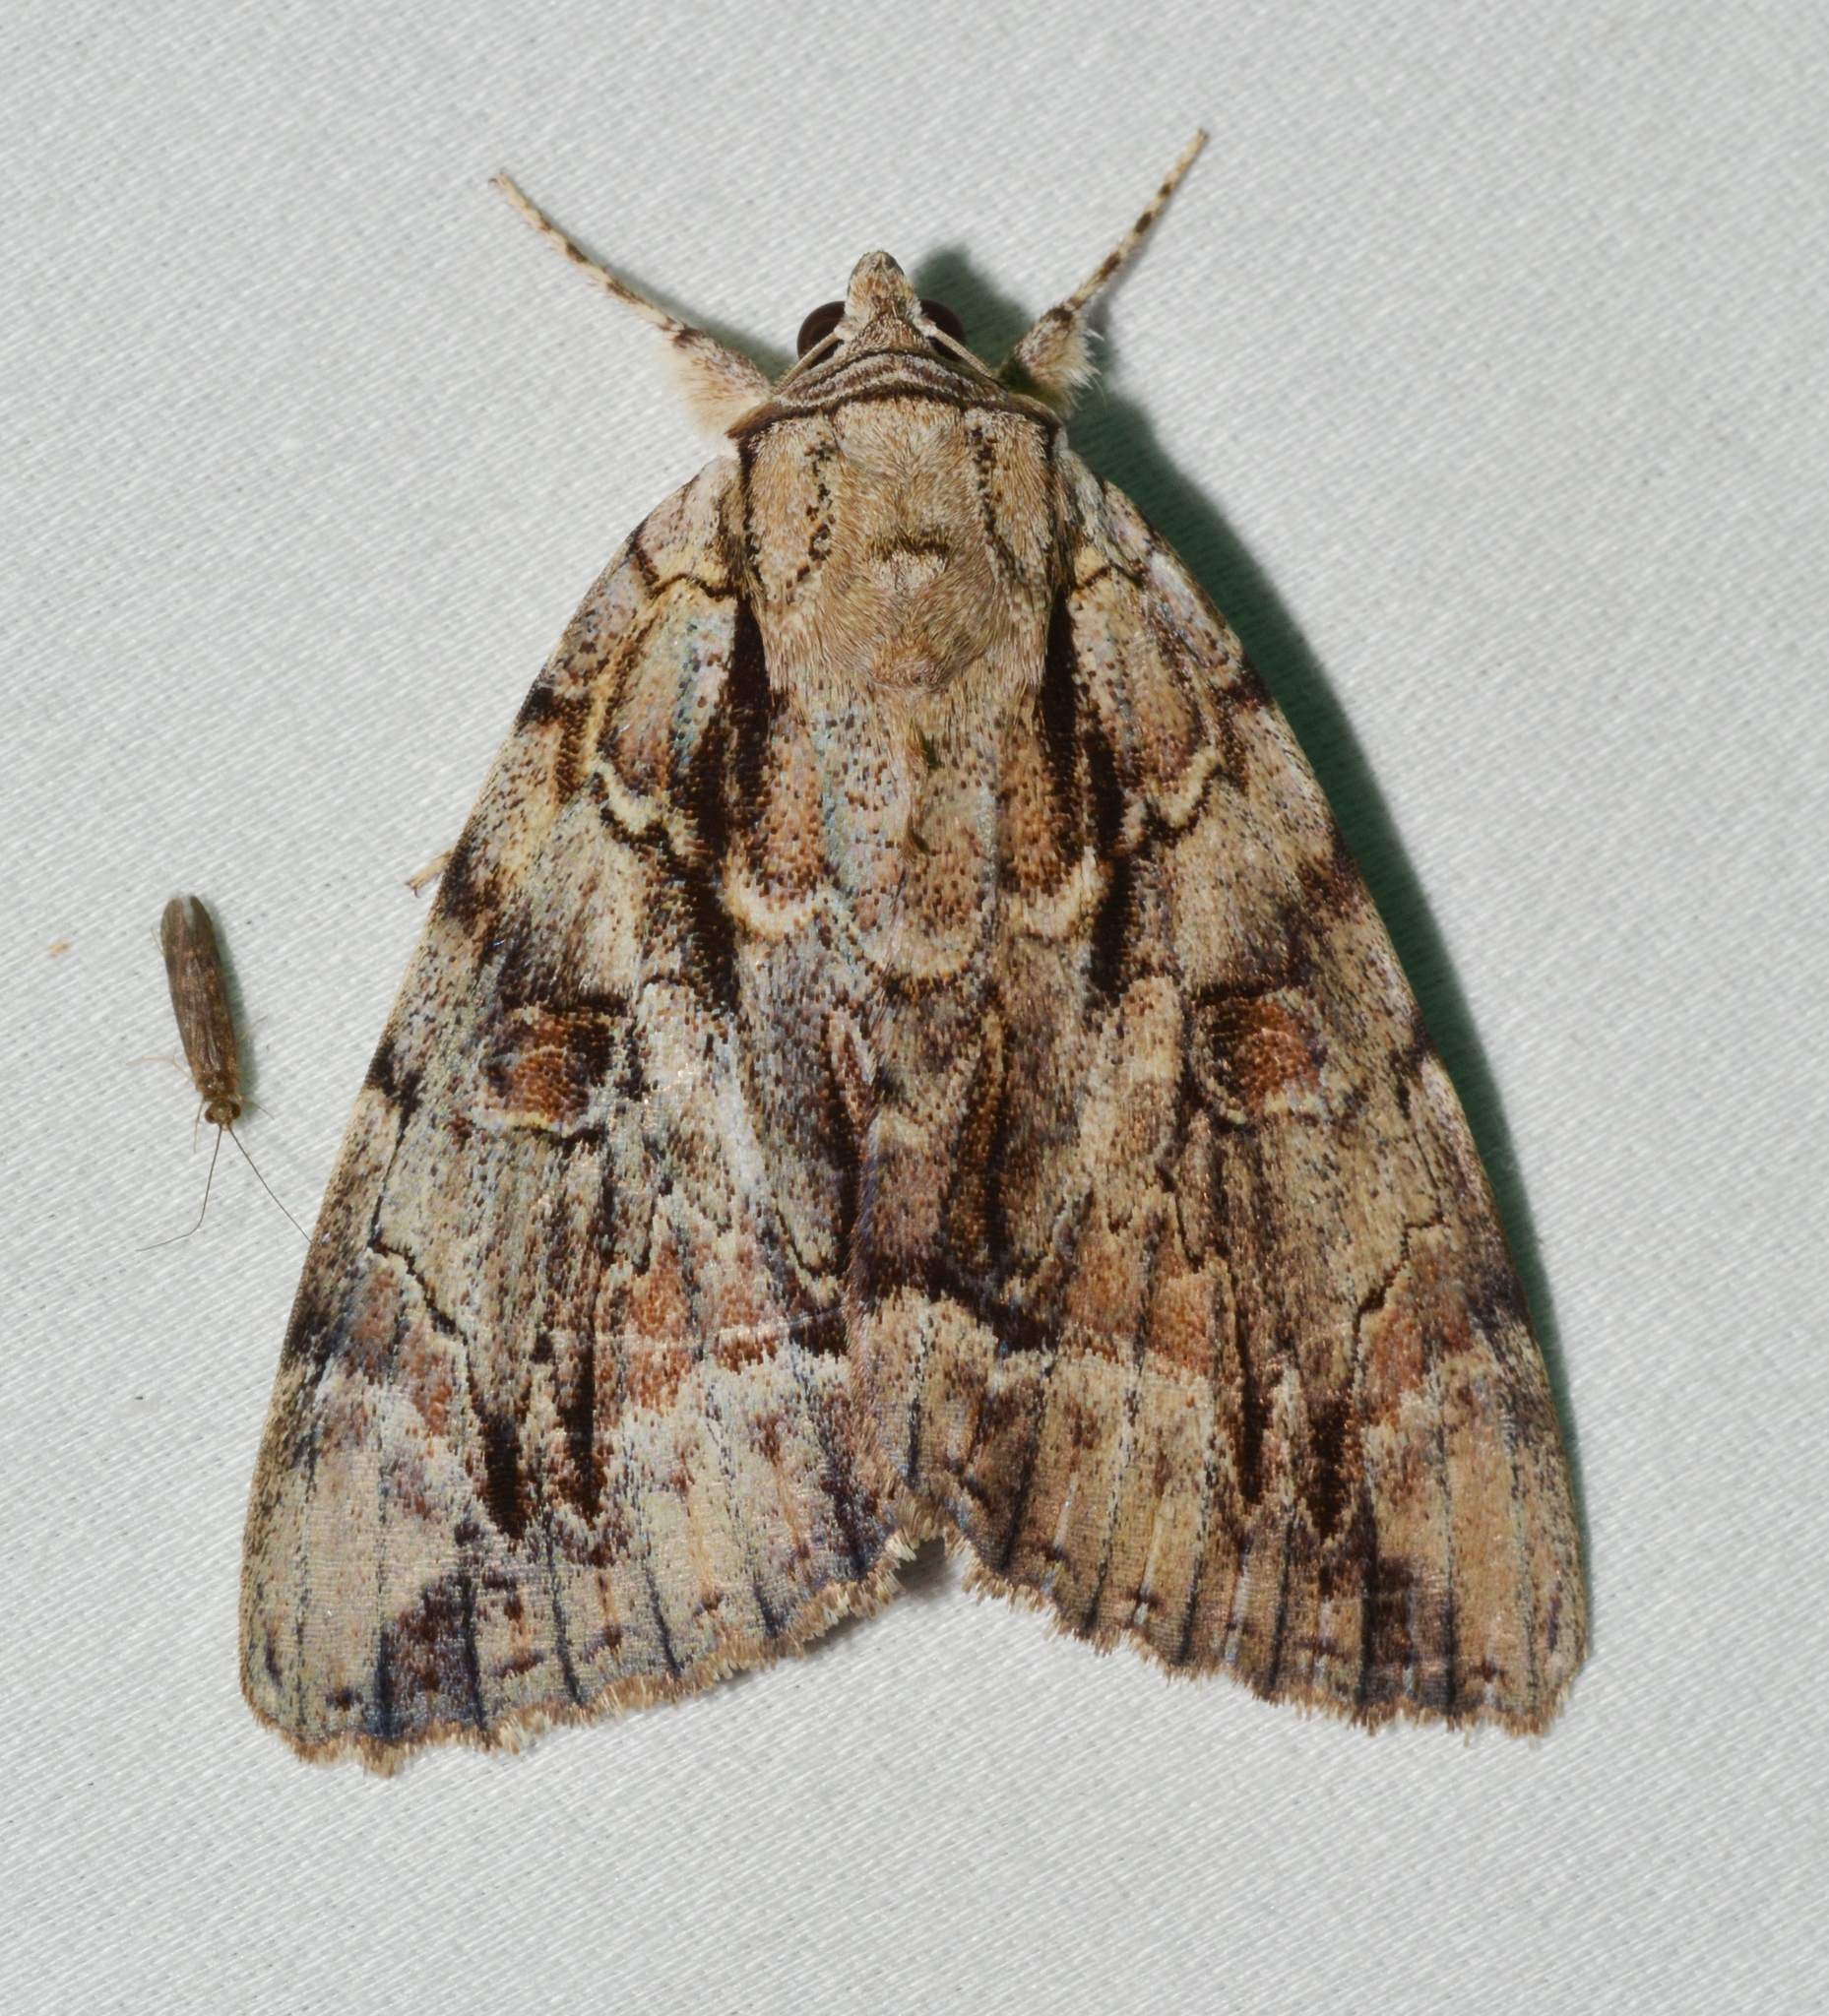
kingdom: Animalia
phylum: Arthropoda
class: Insecta
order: Lepidoptera
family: Erebidae
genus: Catocala
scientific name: Catocala luctuosa
